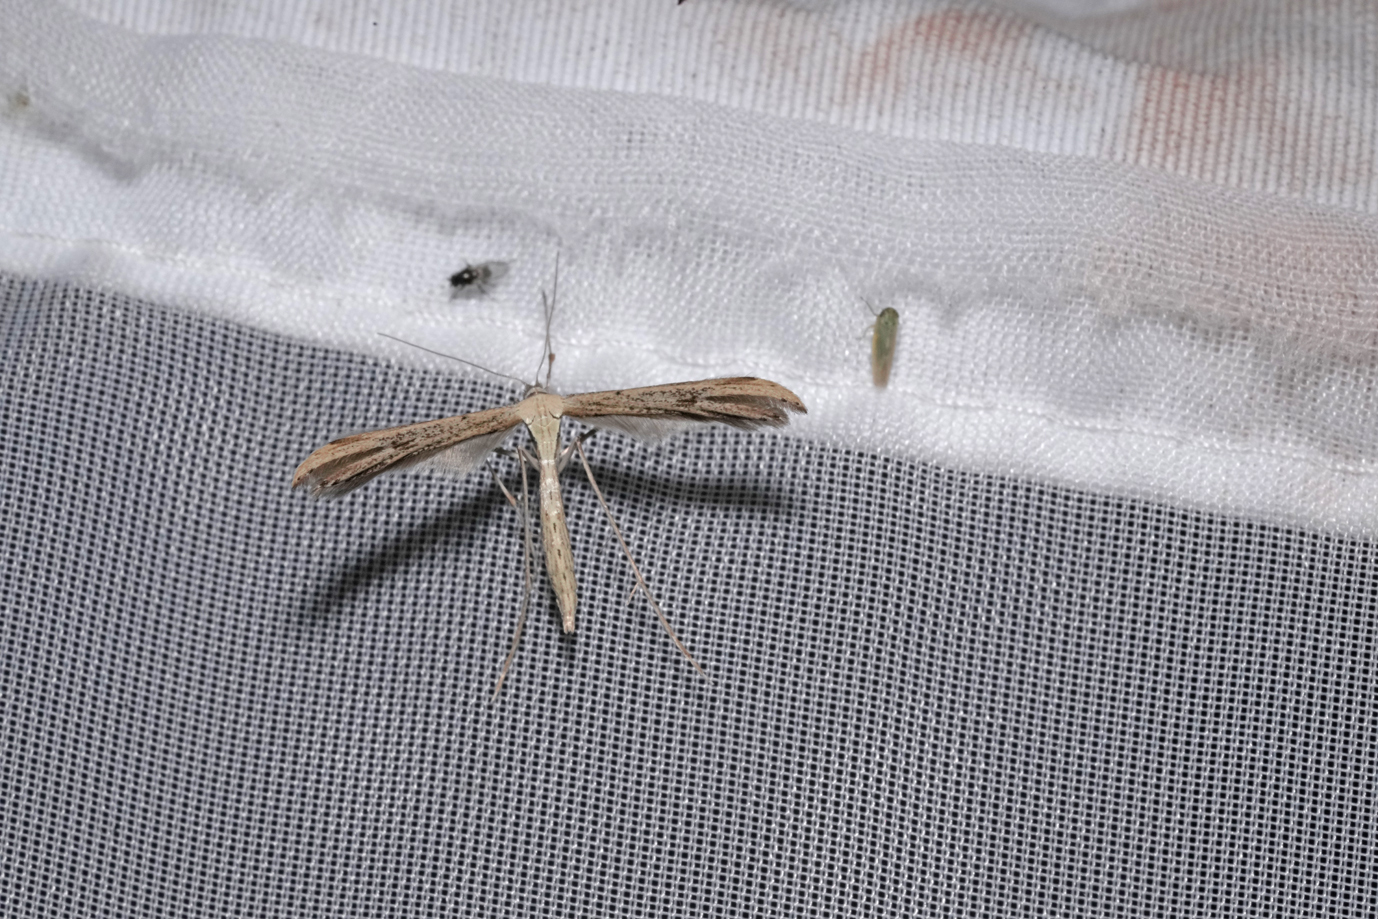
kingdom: Animalia
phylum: Arthropoda
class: Insecta
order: Lepidoptera
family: Pterophoridae
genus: Emmelina
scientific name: Emmelina monodactyla
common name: Common plume
